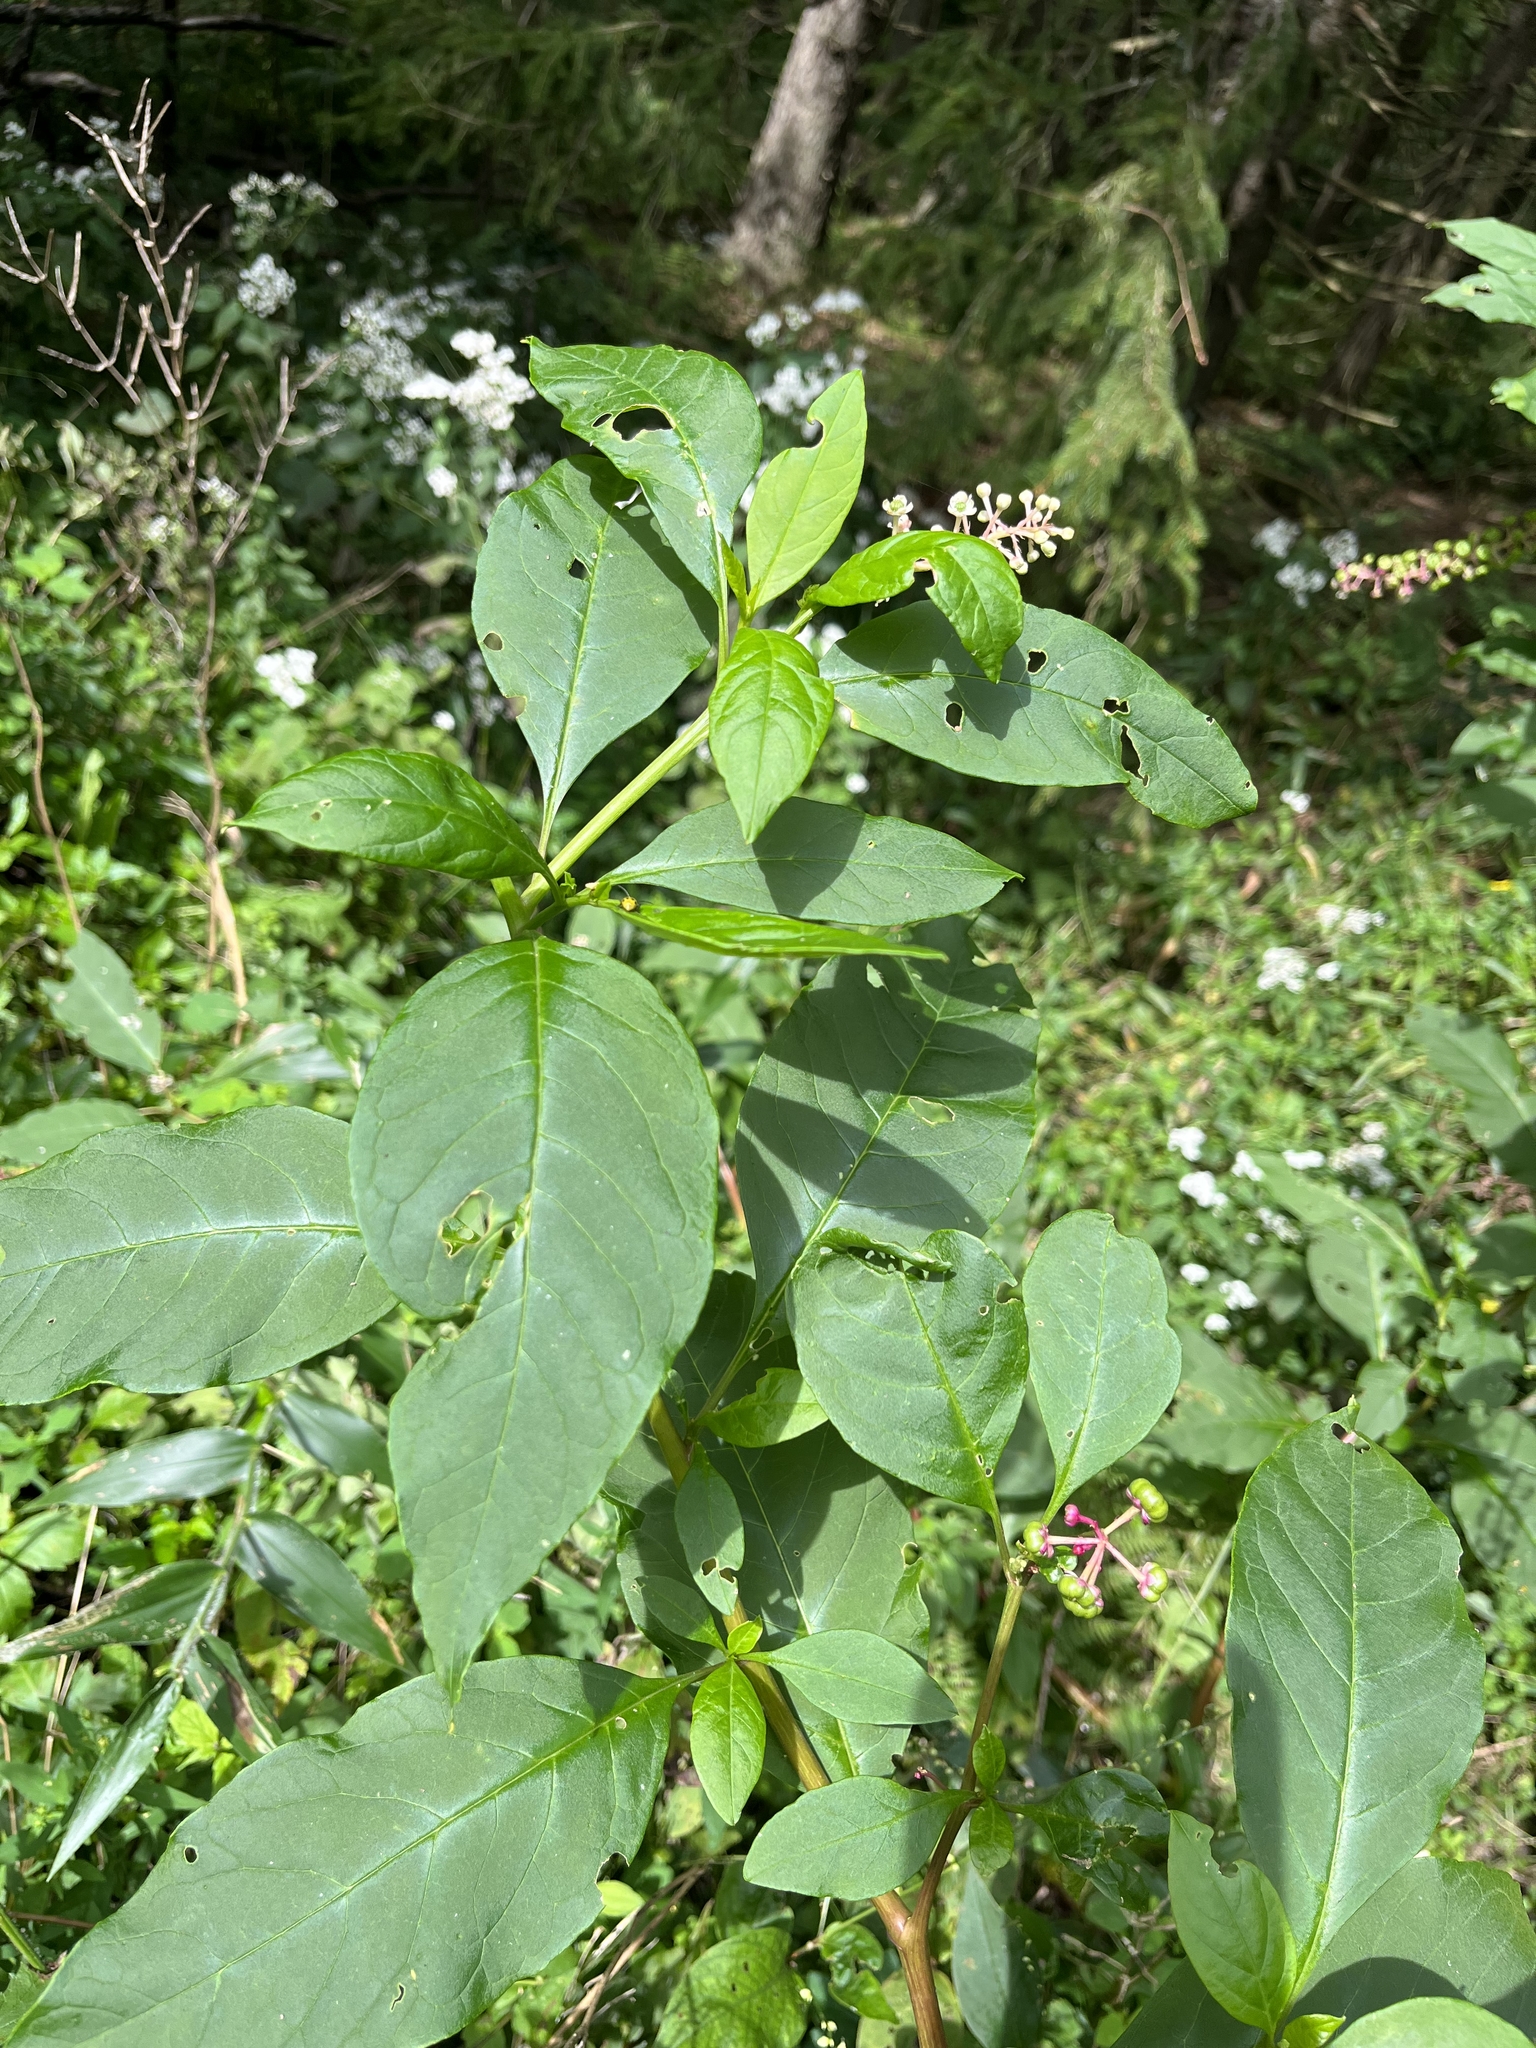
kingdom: Plantae
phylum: Tracheophyta
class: Magnoliopsida
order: Caryophyllales
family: Phytolaccaceae
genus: Phytolacca
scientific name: Phytolacca americana
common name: American pokeweed
